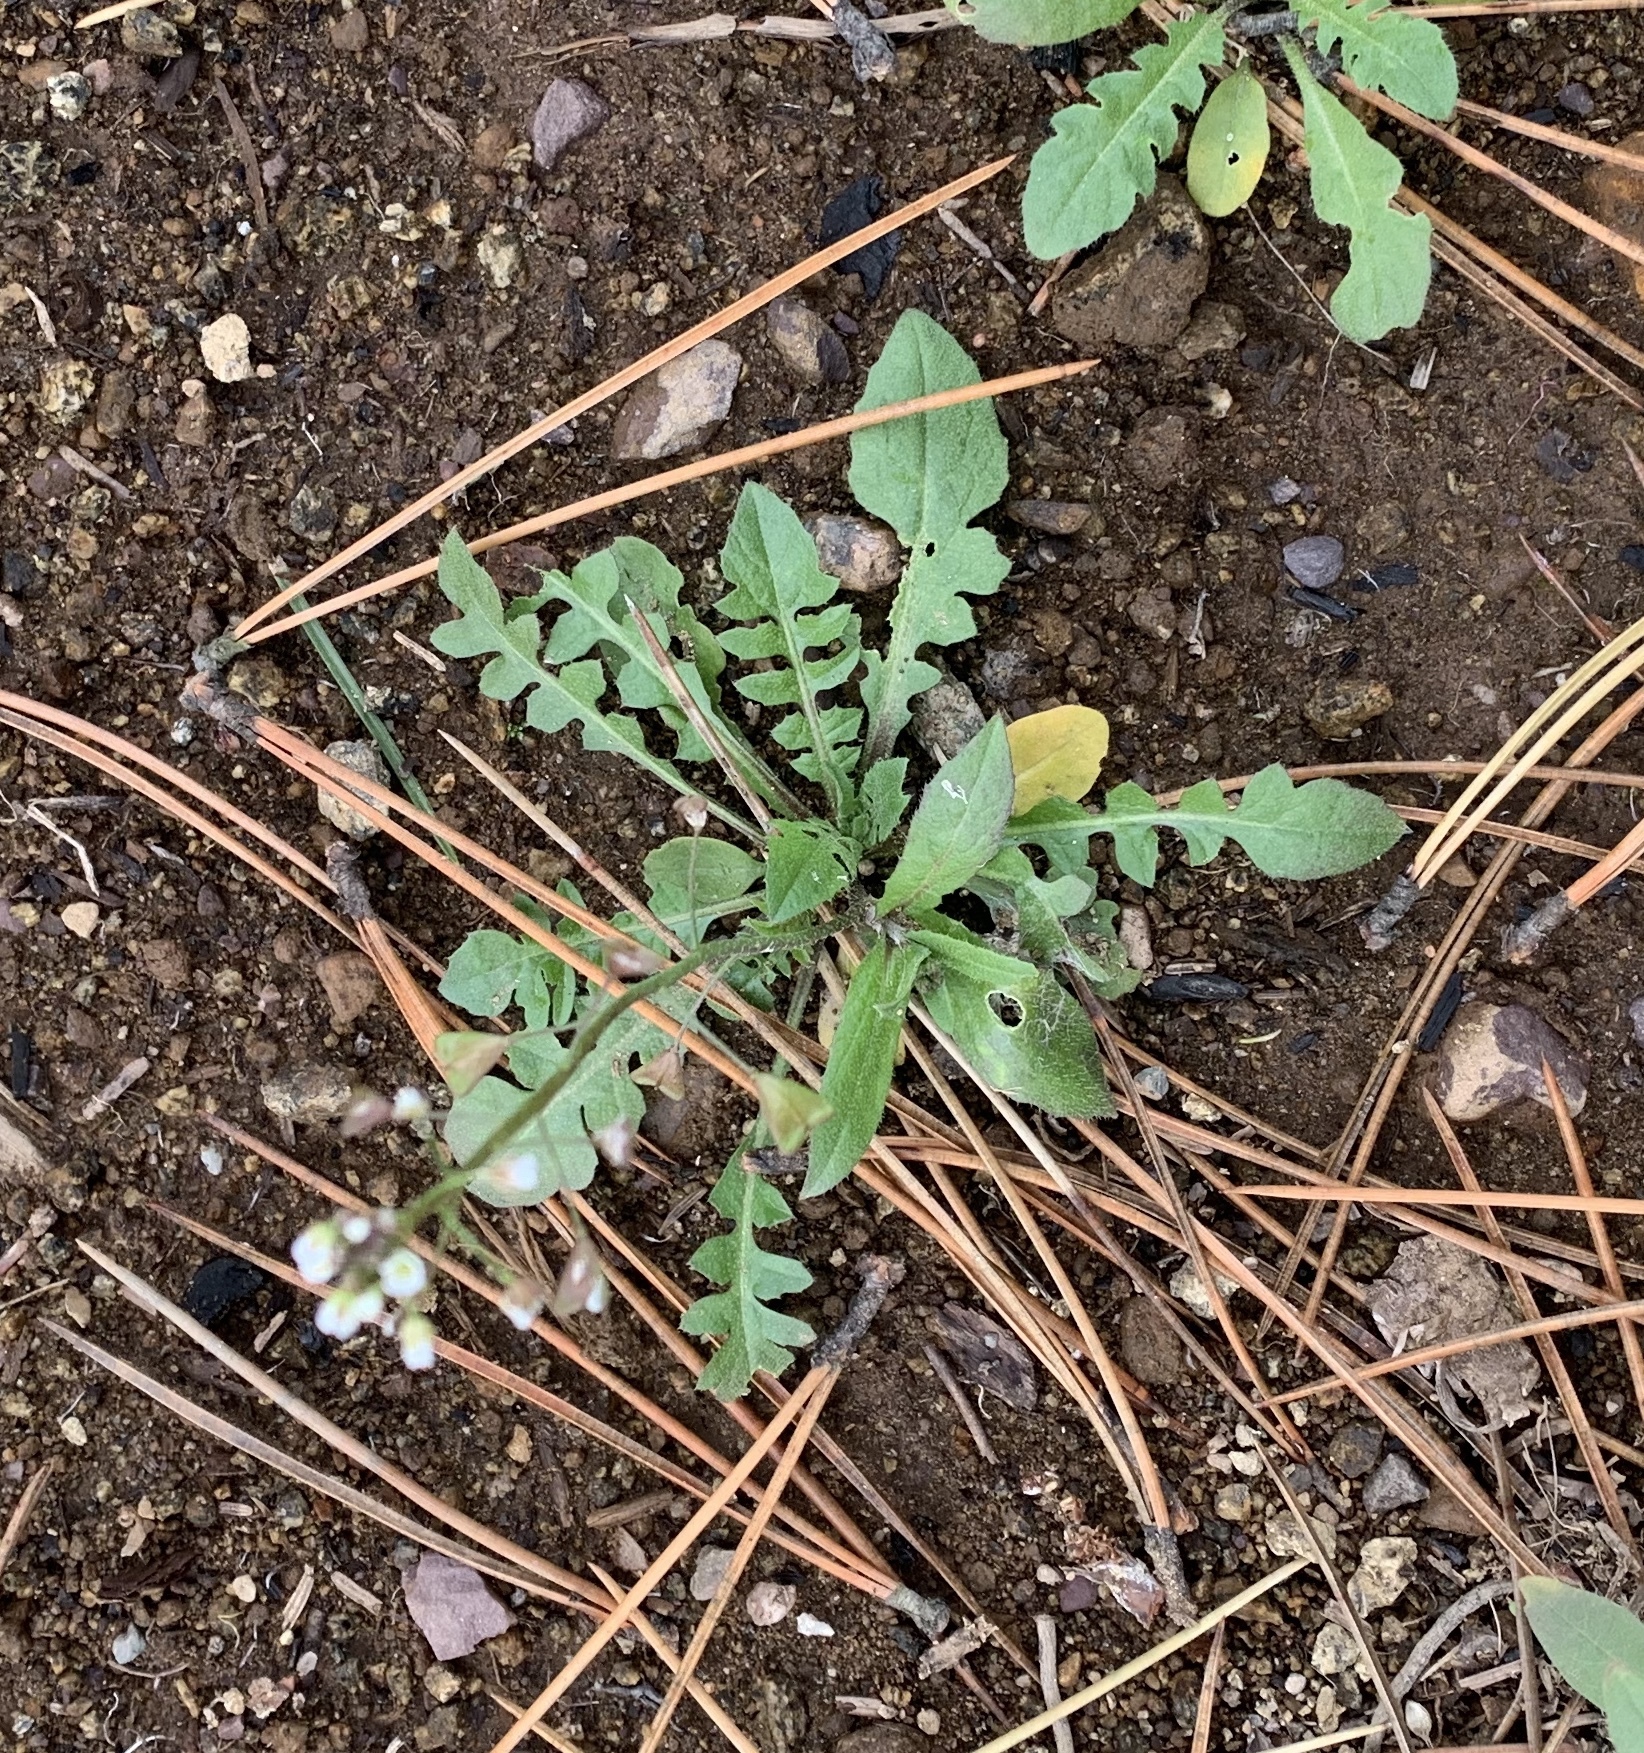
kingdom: Plantae
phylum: Tracheophyta
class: Magnoliopsida
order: Brassicales
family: Brassicaceae
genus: Capsella
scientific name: Capsella bursa-pastoris
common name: Shepherd's purse
